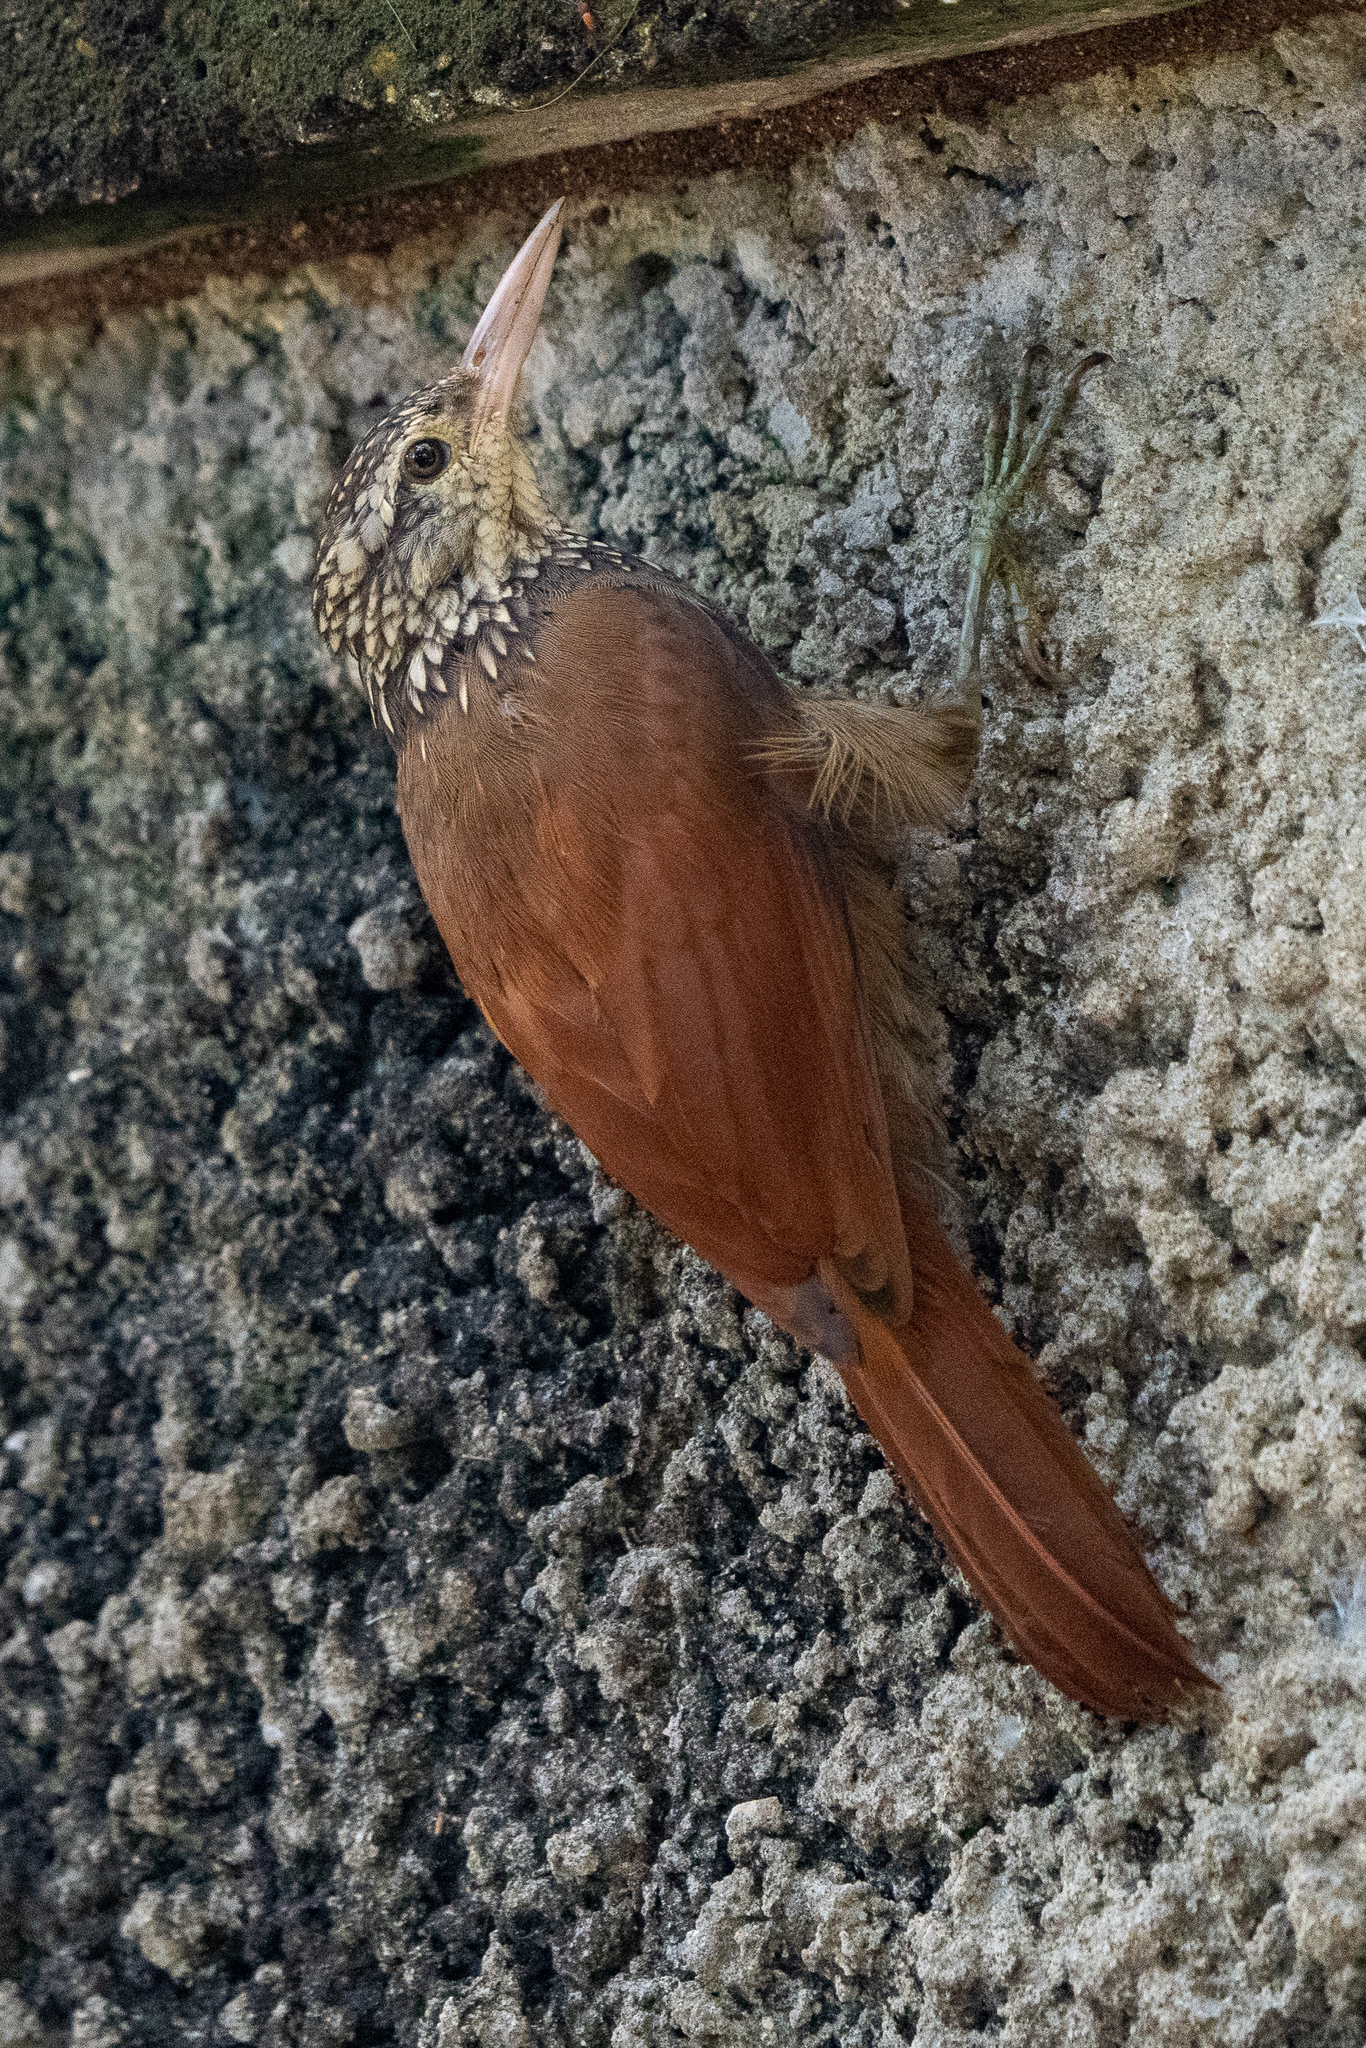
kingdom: Animalia
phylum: Chordata
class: Aves
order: Passeriformes
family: Furnariidae
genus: Xiphorhynchus
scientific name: Xiphorhynchus picus
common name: Straight-billed woodcreeper
